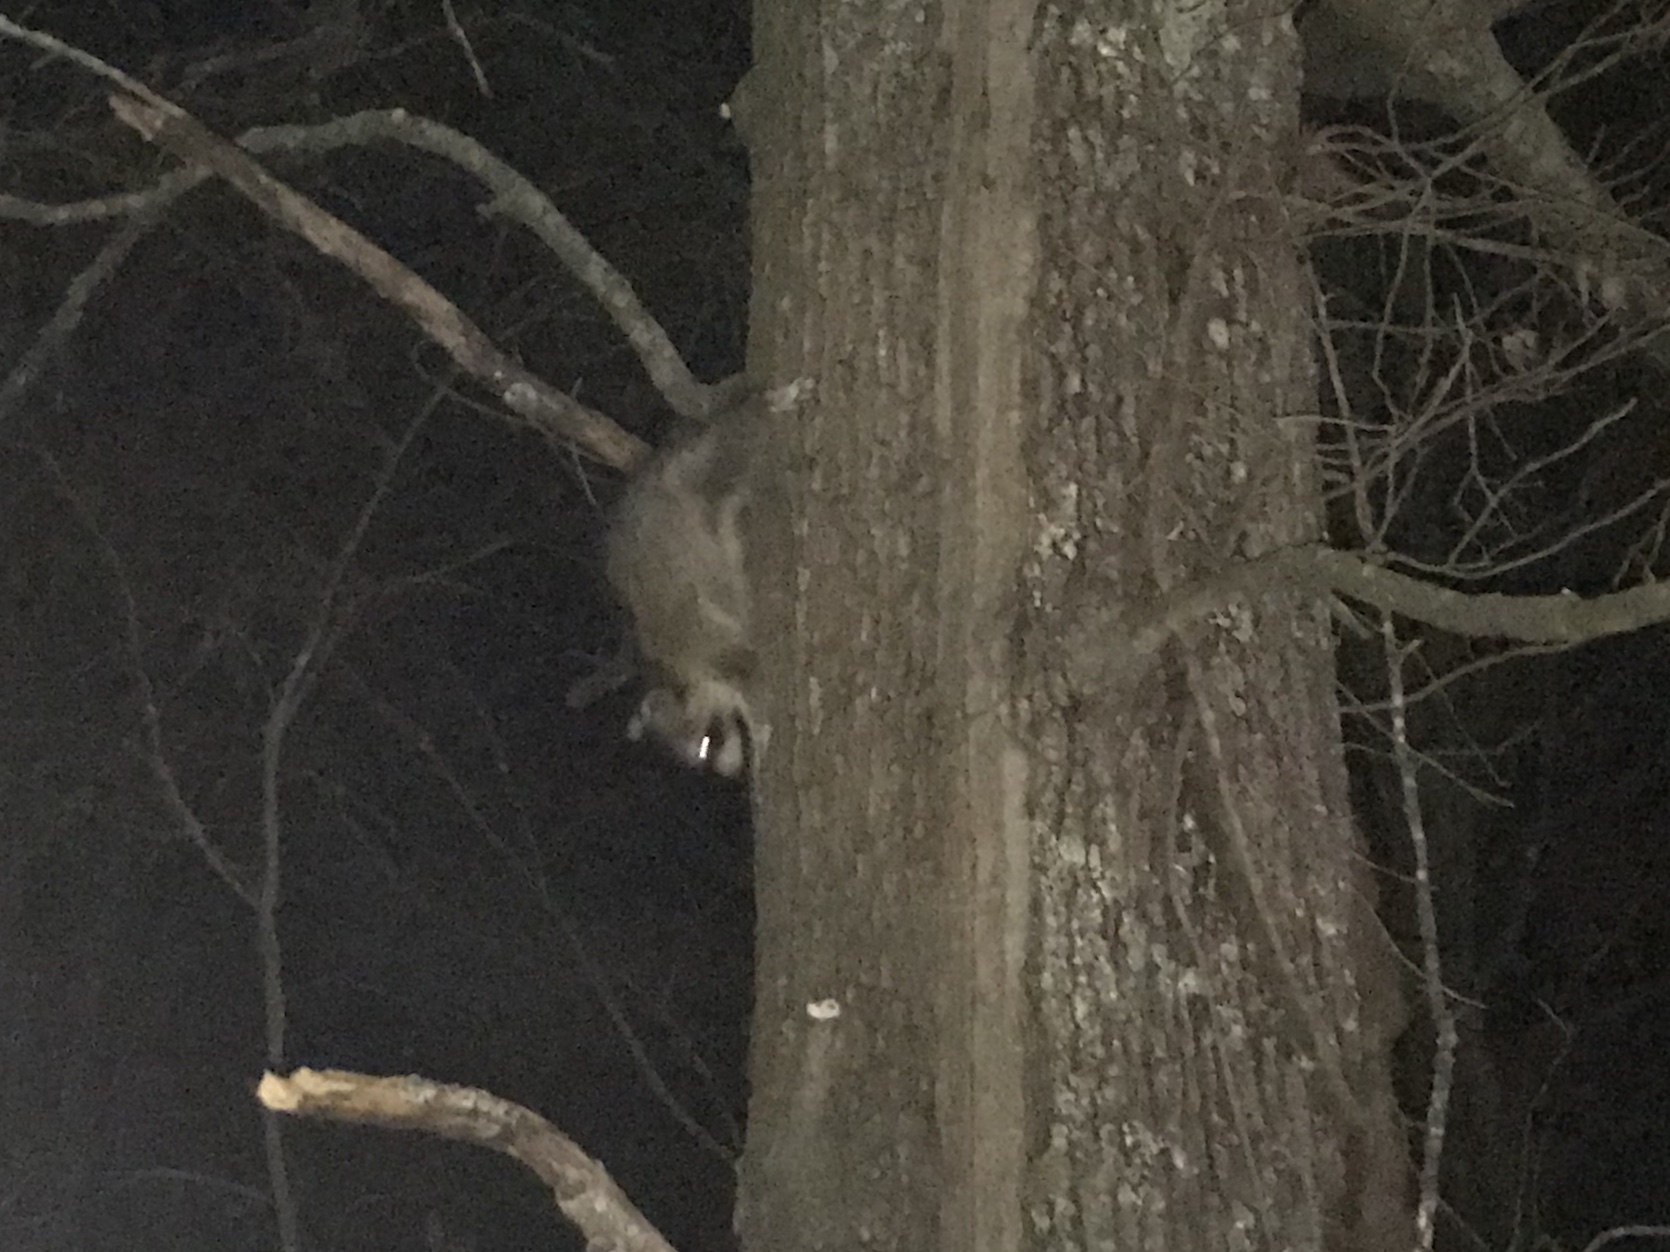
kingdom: Animalia
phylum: Chordata
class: Mammalia
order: Carnivora
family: Procyonidae
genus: Procyon
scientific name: Procyon lotor
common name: Raccoon
